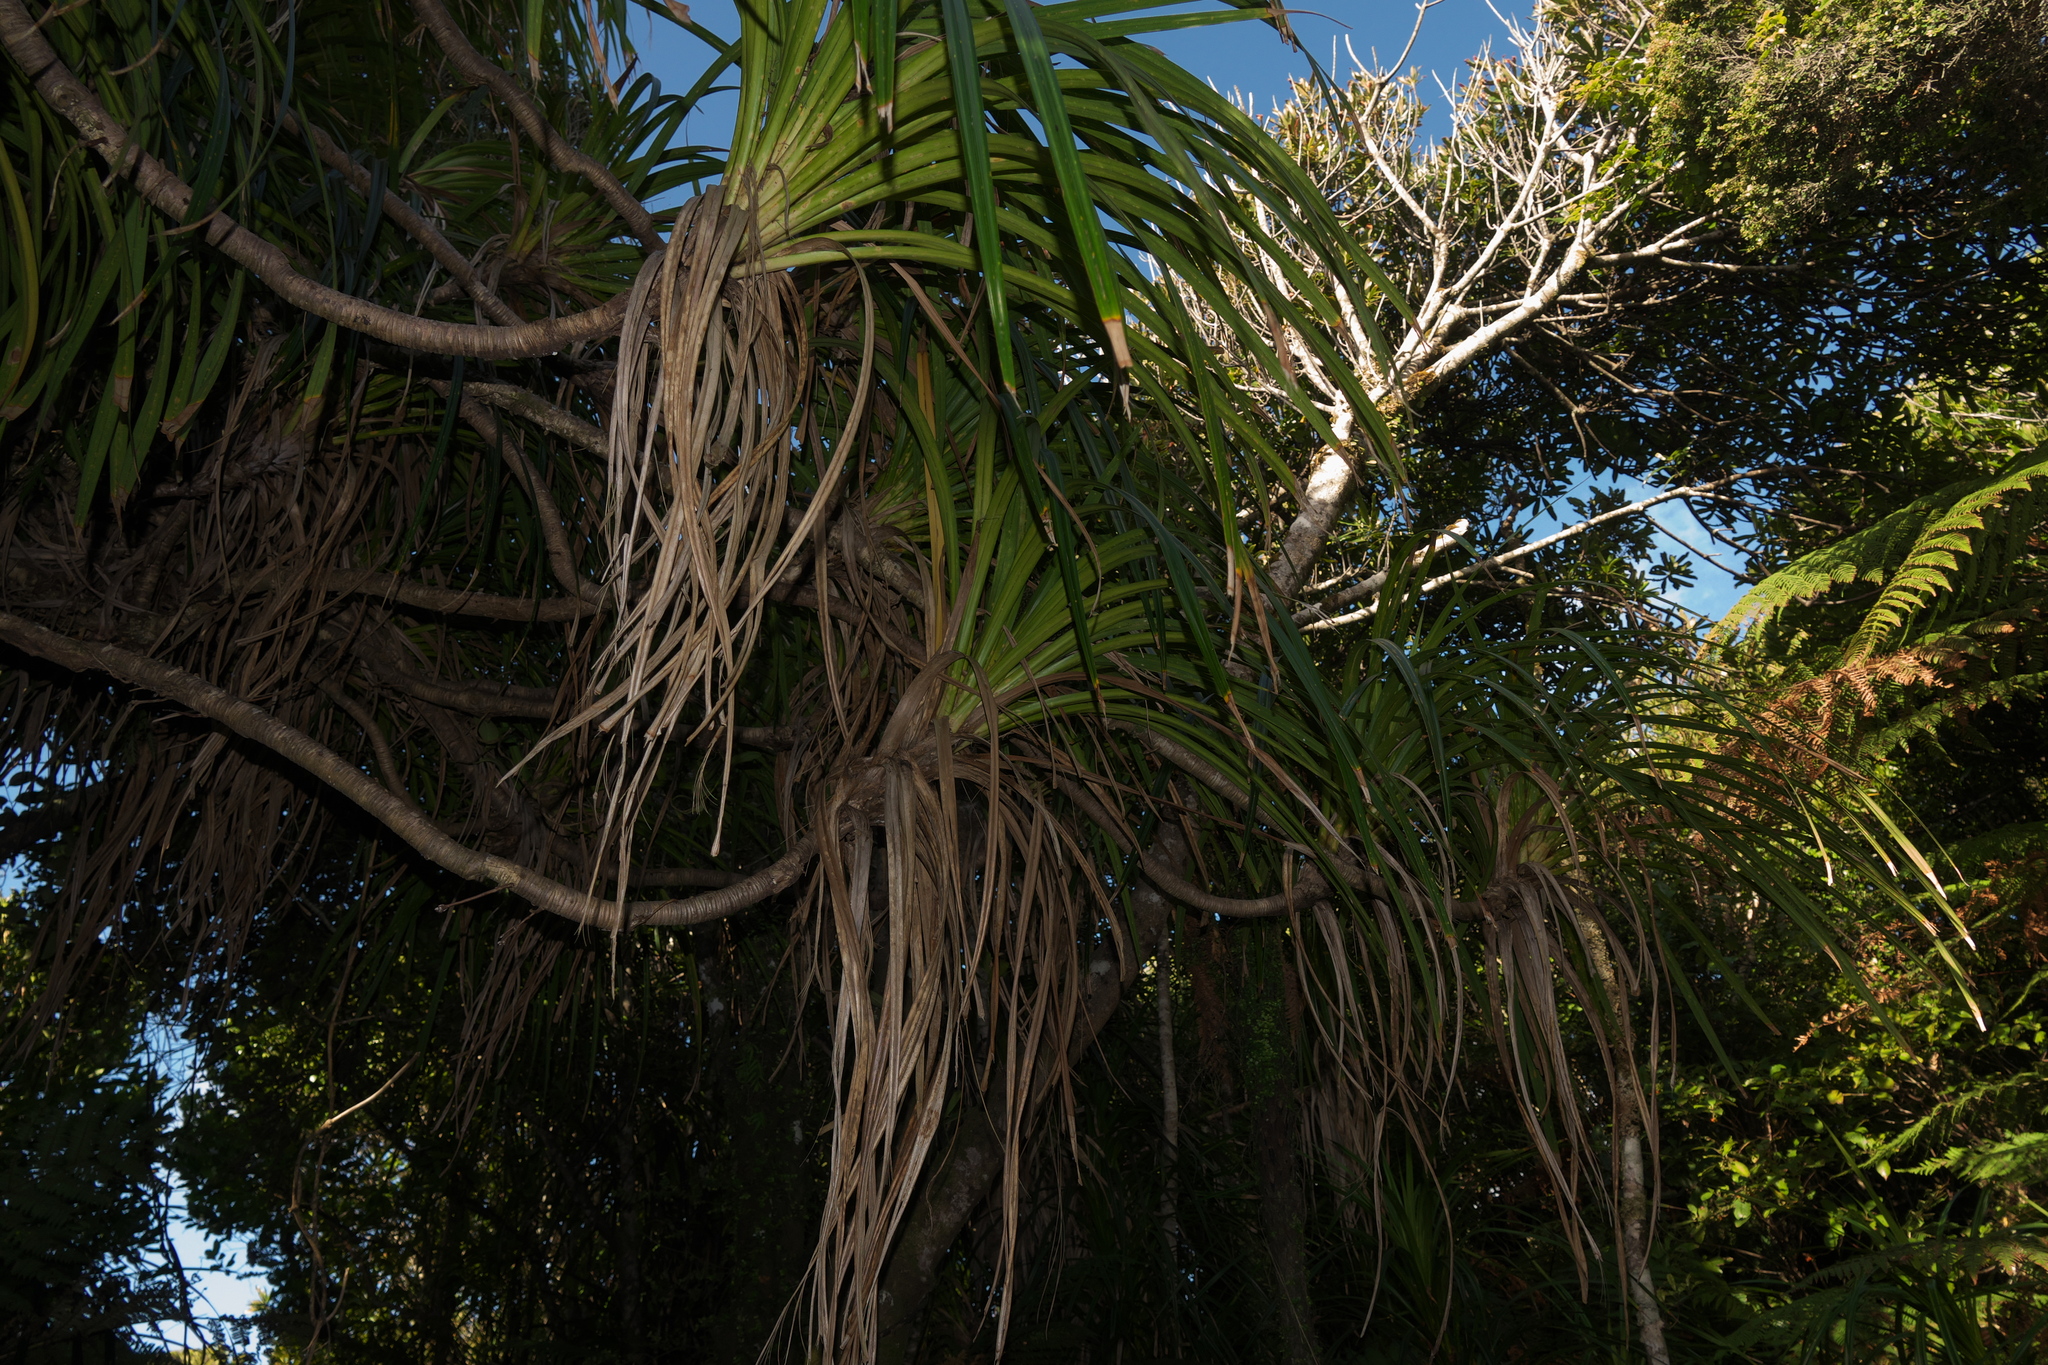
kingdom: Plantae
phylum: Tracheophyta
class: Liliopsida
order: Pandanales
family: Pandanaceae
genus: Freycinetia
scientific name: Freycinetia banksii
